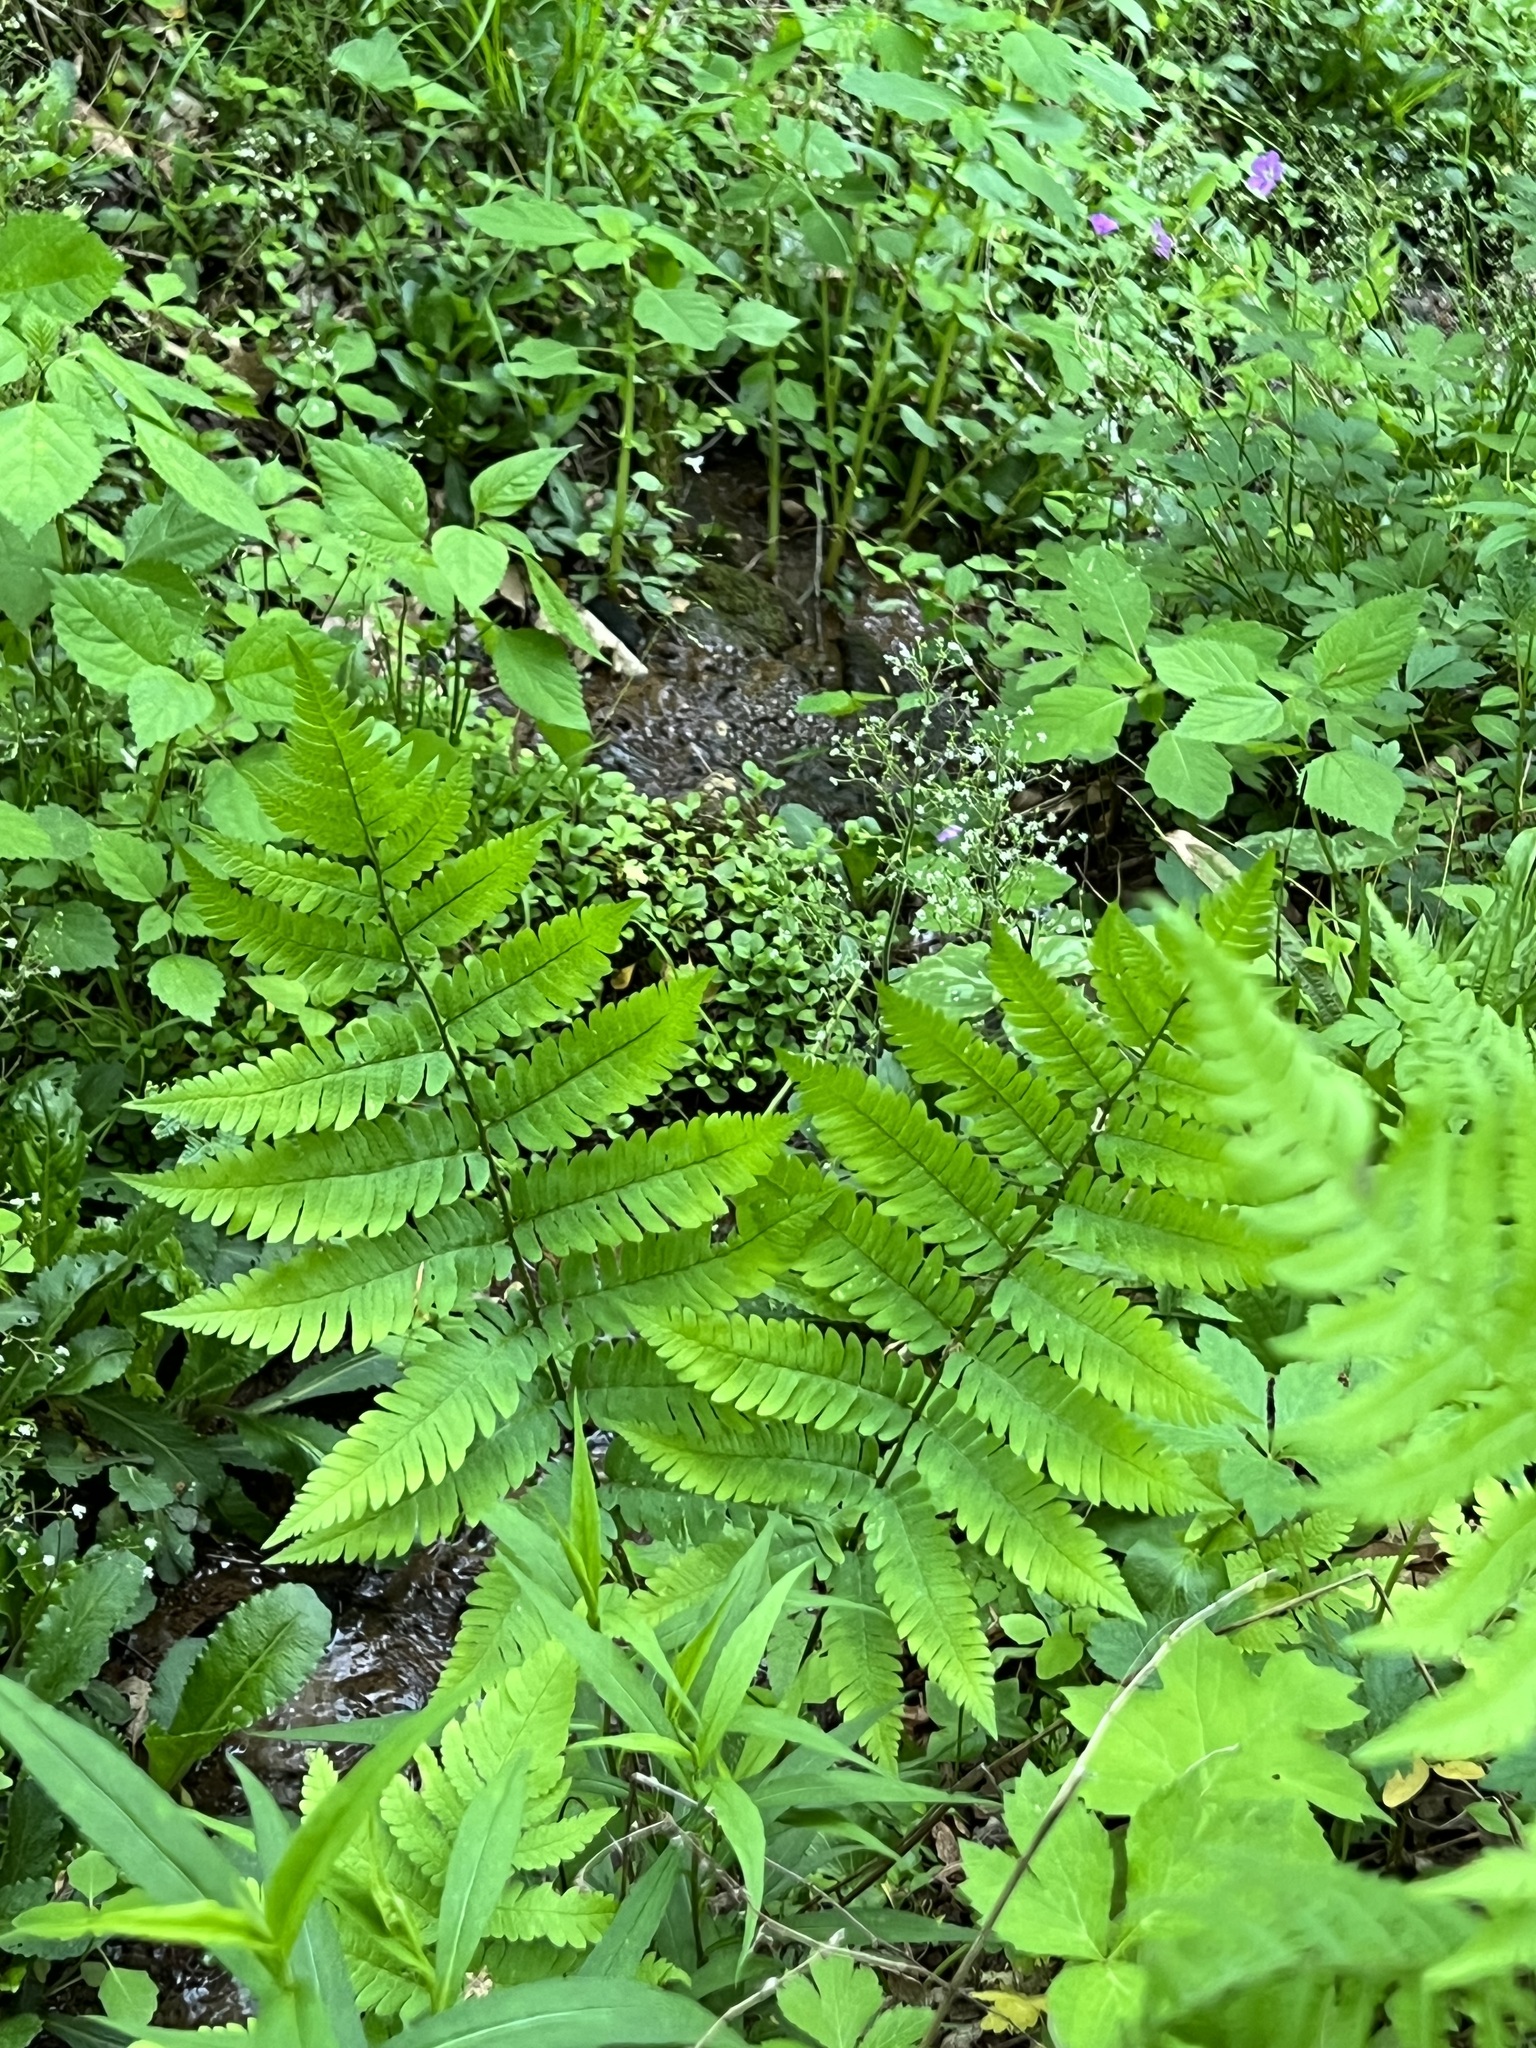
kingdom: Plantae
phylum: Tracheophyta
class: Polypodiopsida
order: Polypodiales
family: Dryopteridaceae
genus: Dryopteris
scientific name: Dryopteris goldieana
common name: Goldie's fern
